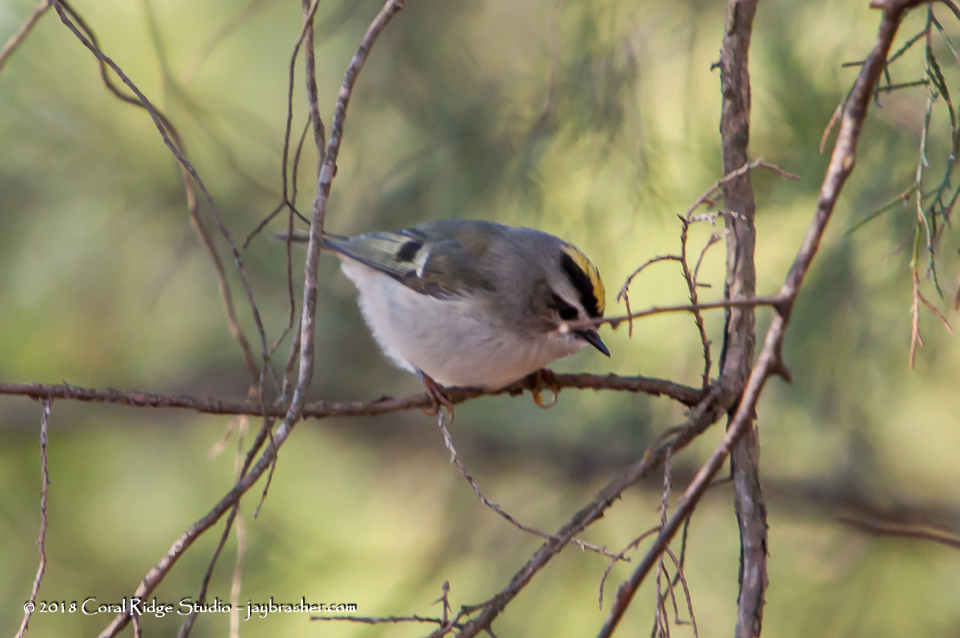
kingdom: Animalia
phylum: Chordata
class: Aves
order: Passeriformes
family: Regulidae
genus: Regulus
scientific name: Regulus satrapa
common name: Golden-crowned kinglet
